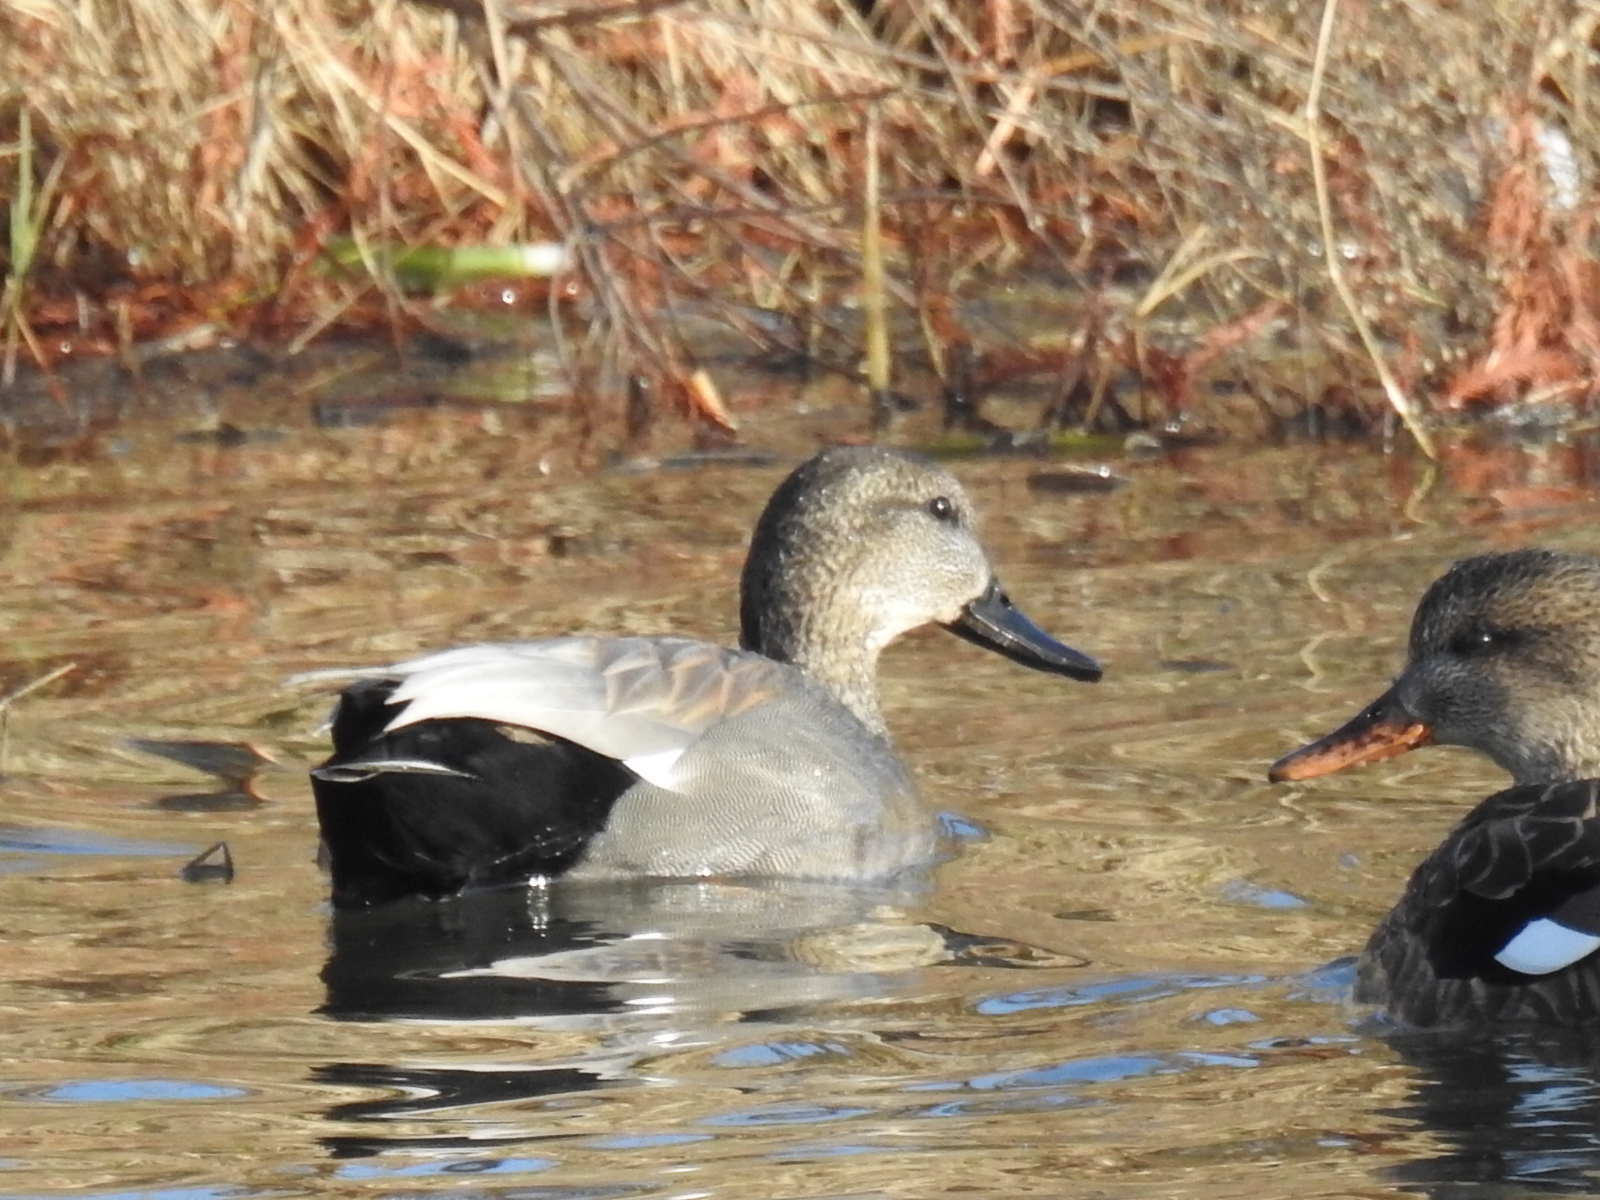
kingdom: Animalia
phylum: Chordata
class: Aves
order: Anseriformes
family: Anatidae
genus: Mareca
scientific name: Mareca strepera
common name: Gadwall
